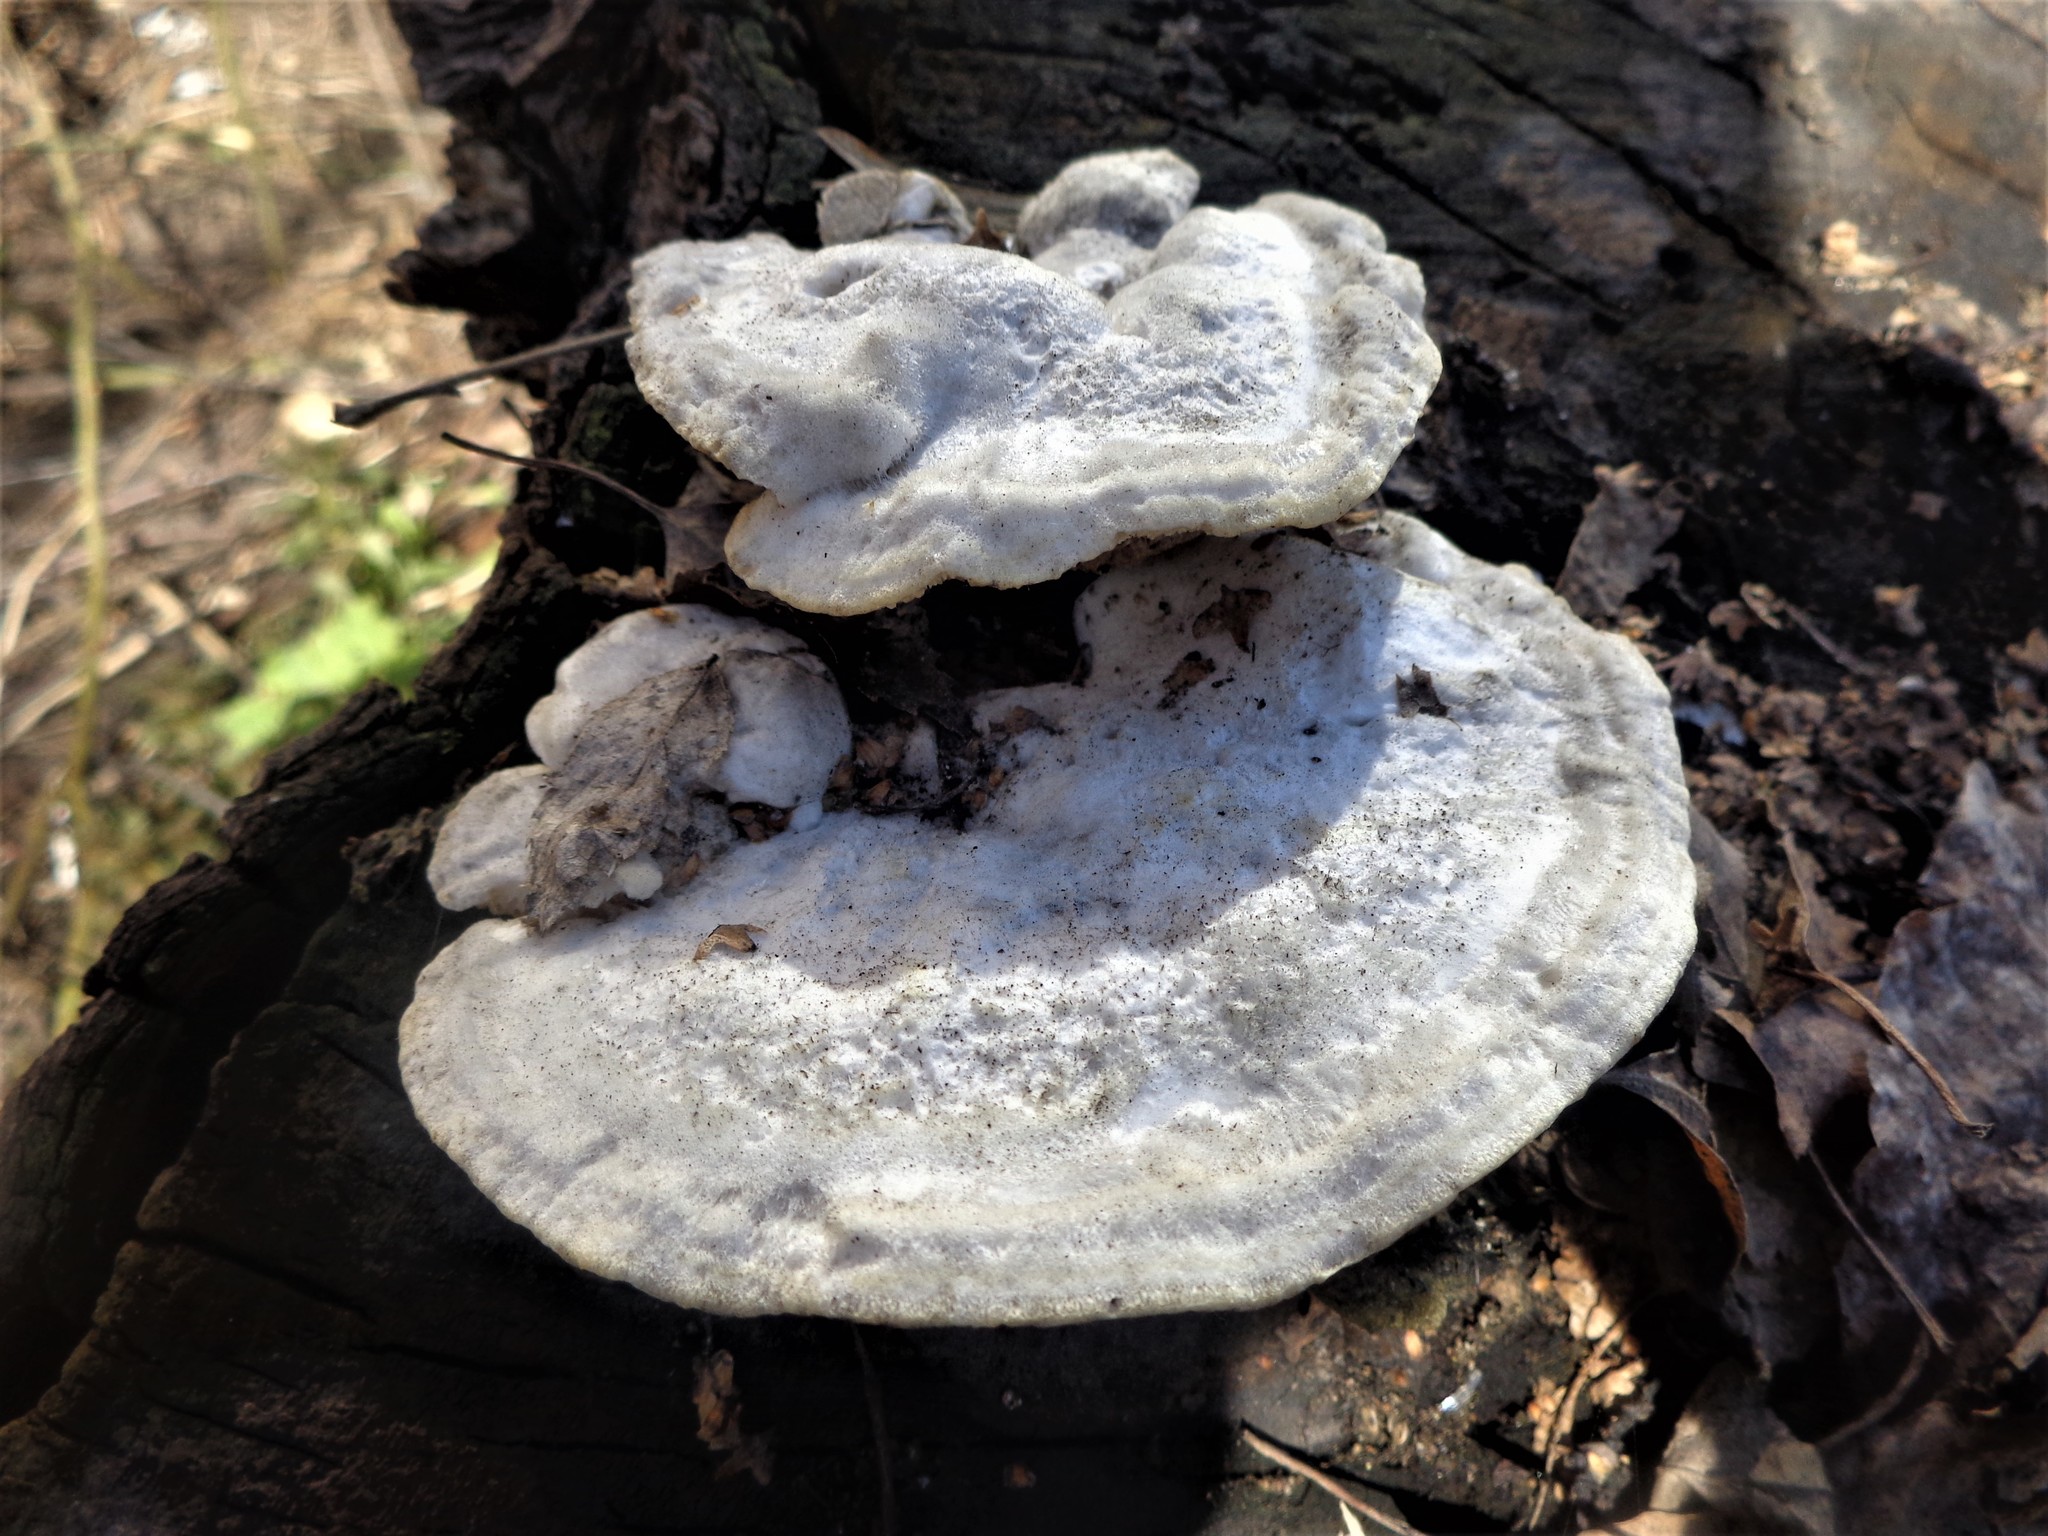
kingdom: Fungi
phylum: Basidiomycota
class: Agaricomycetes
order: Polyporales
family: Irpicaceae
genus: Trametopsis
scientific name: Trametopsis cervina
